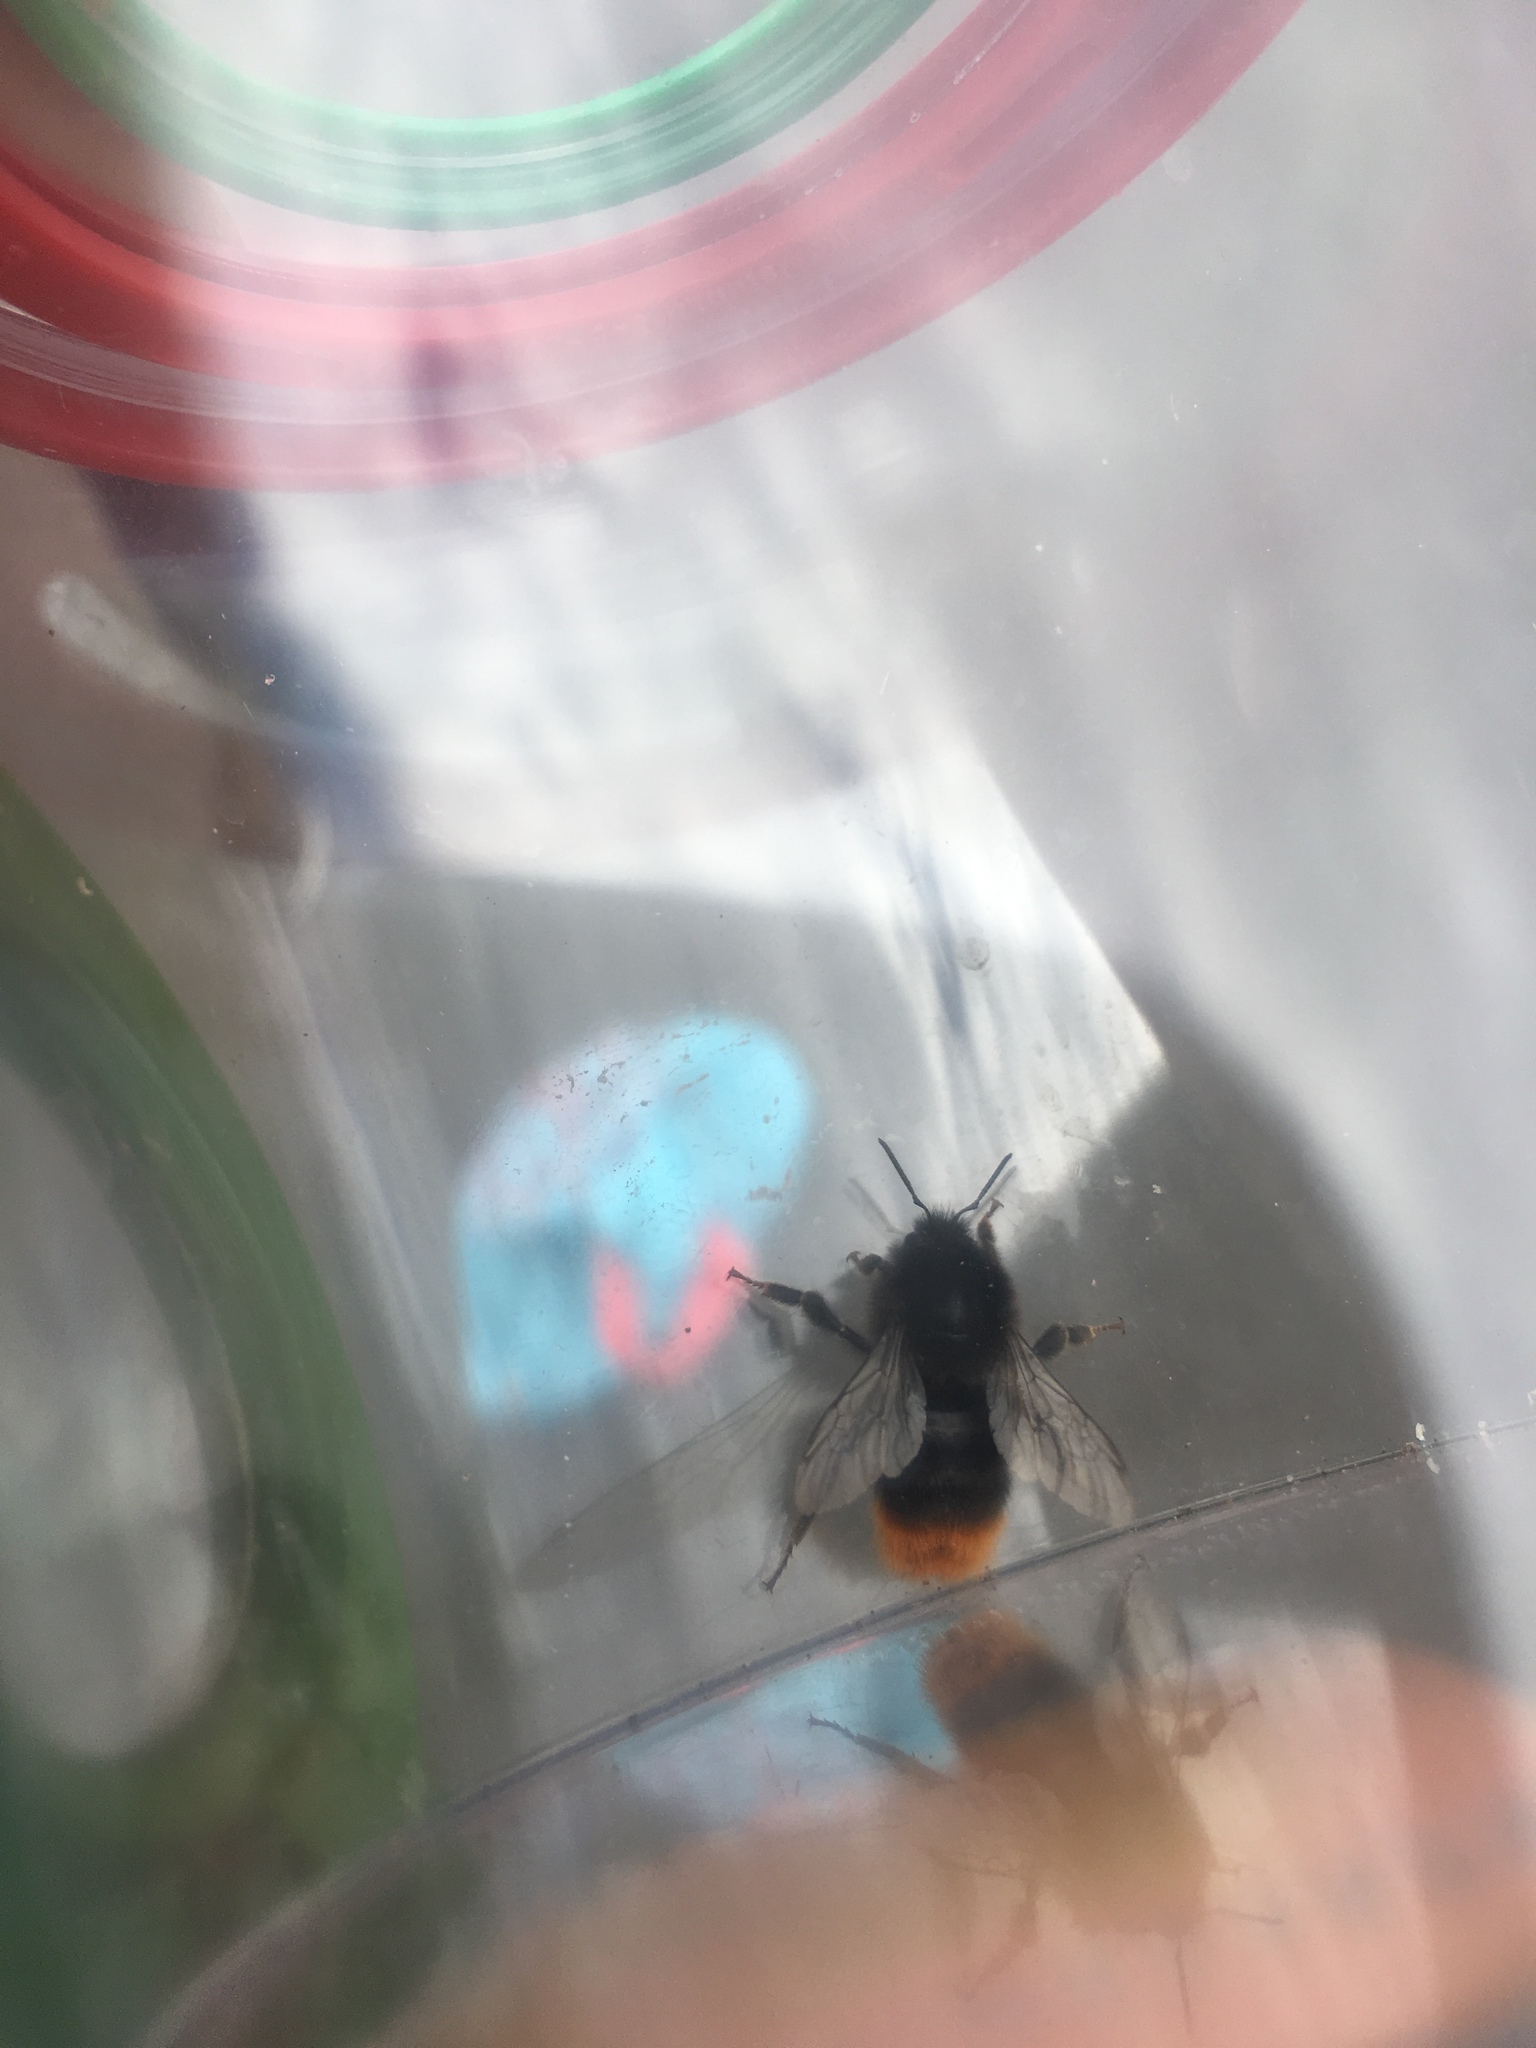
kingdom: Animalia
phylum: Arthropoda
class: Insecta
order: Hymenoptera
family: Apidae
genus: Bombus
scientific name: Bombus lapidarius
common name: Large red-tailed humble-bee
